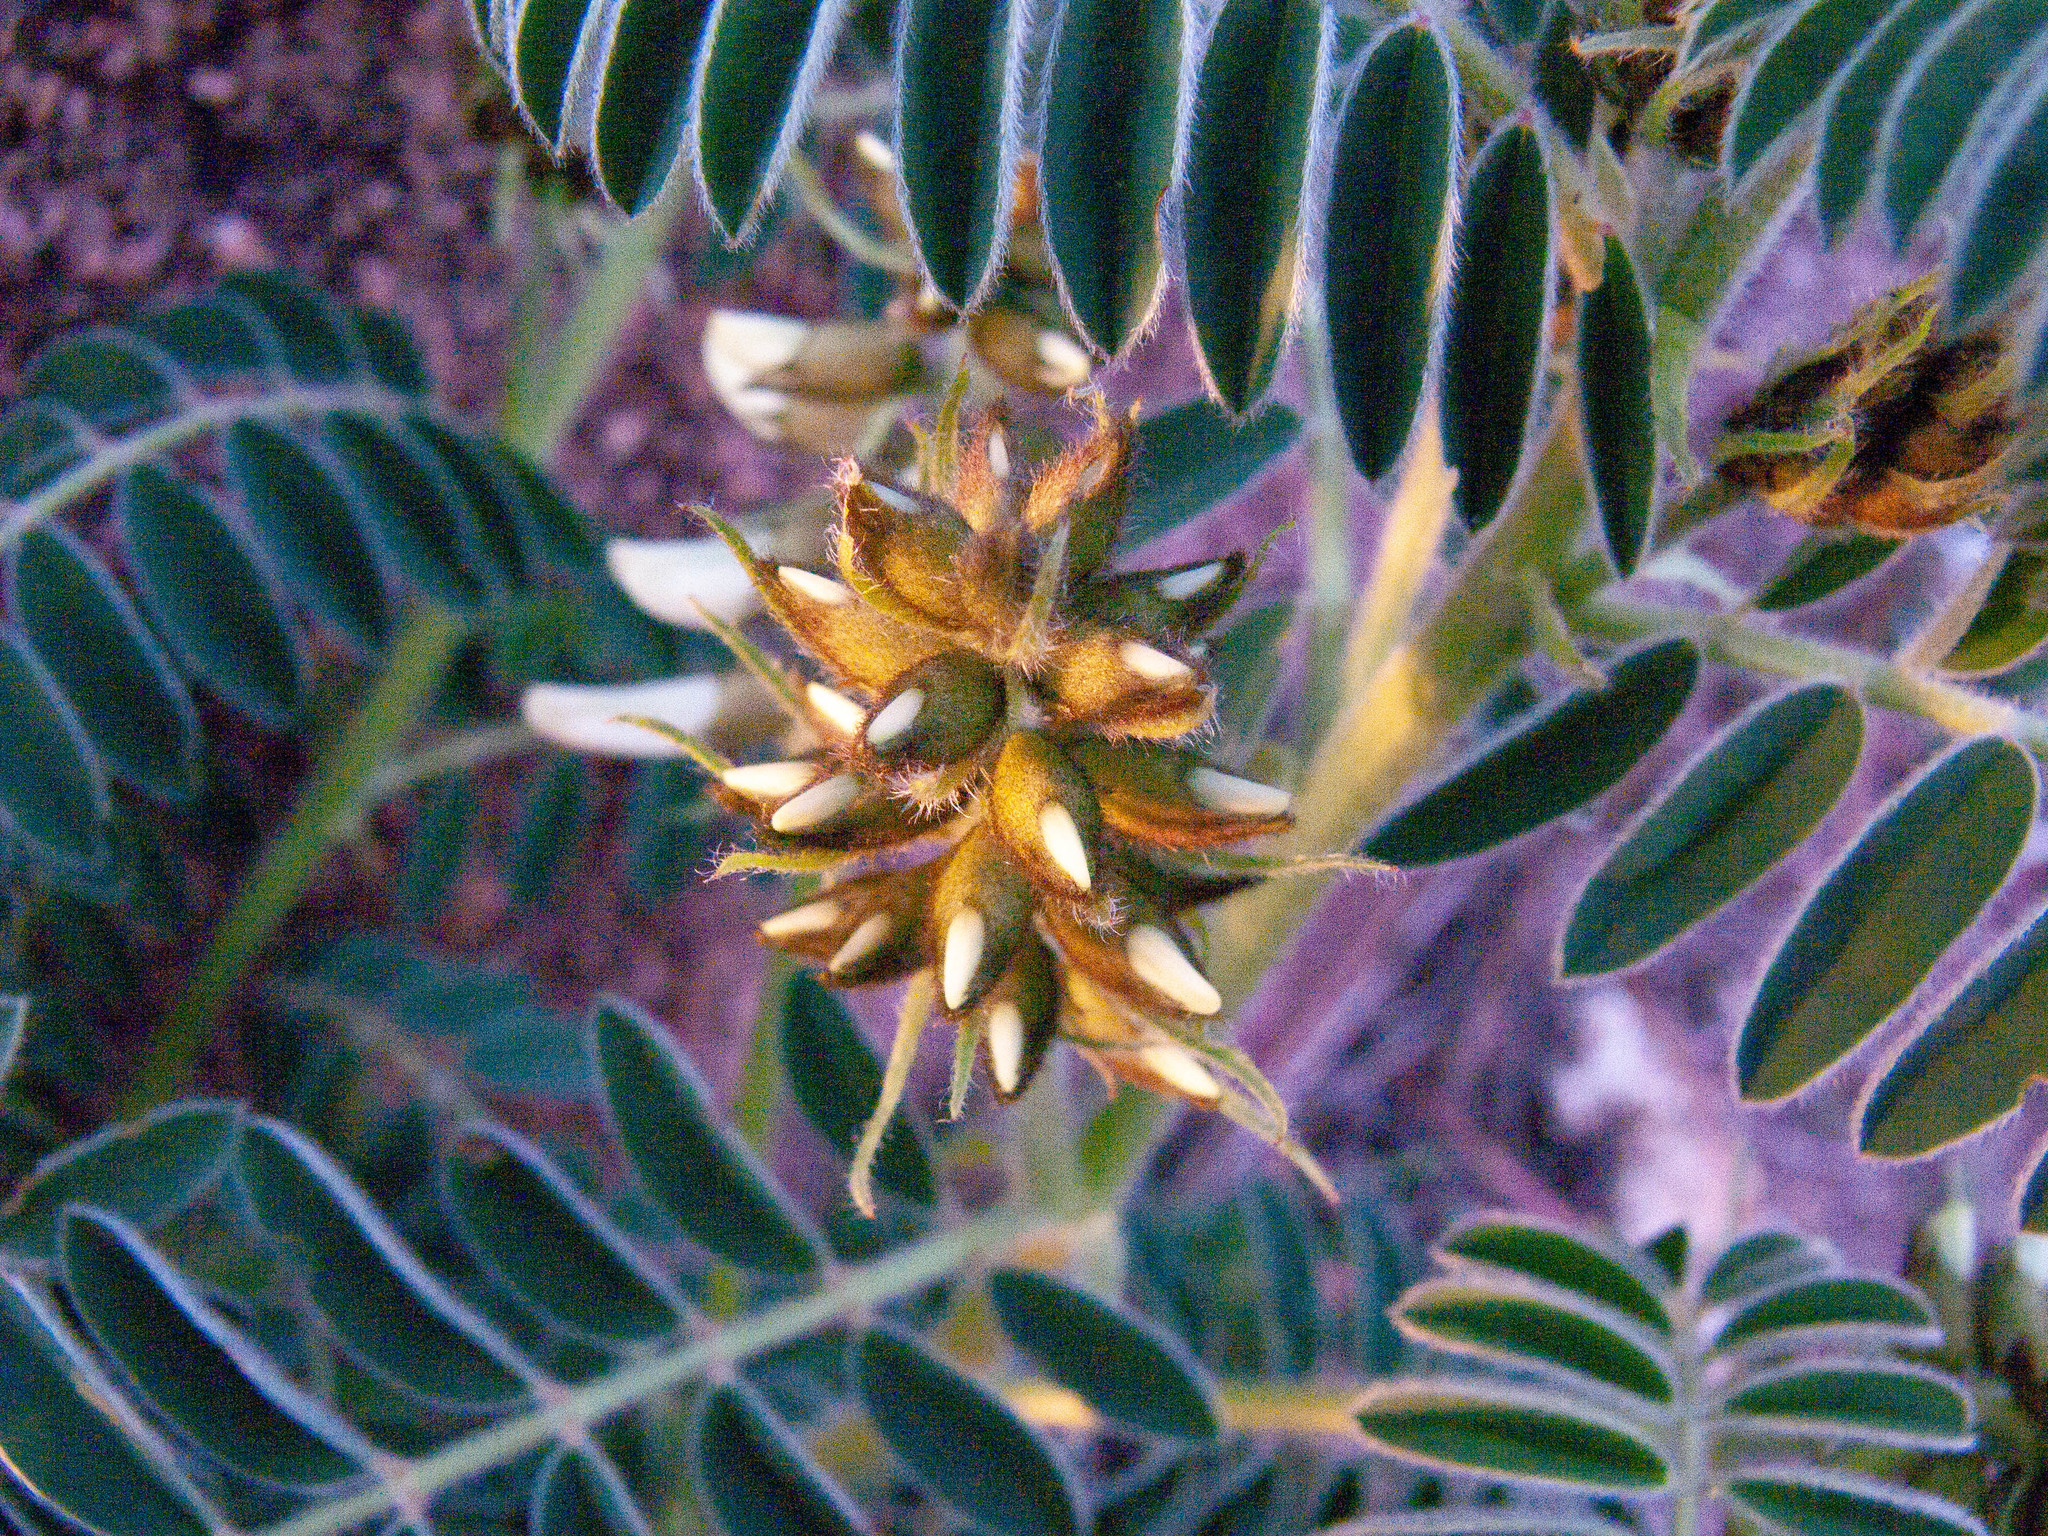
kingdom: Plantae
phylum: Tracheophyta
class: Magnoliopsida
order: Fabales
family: Fabaceae
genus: Erophaca
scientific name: Erophaca baetica
